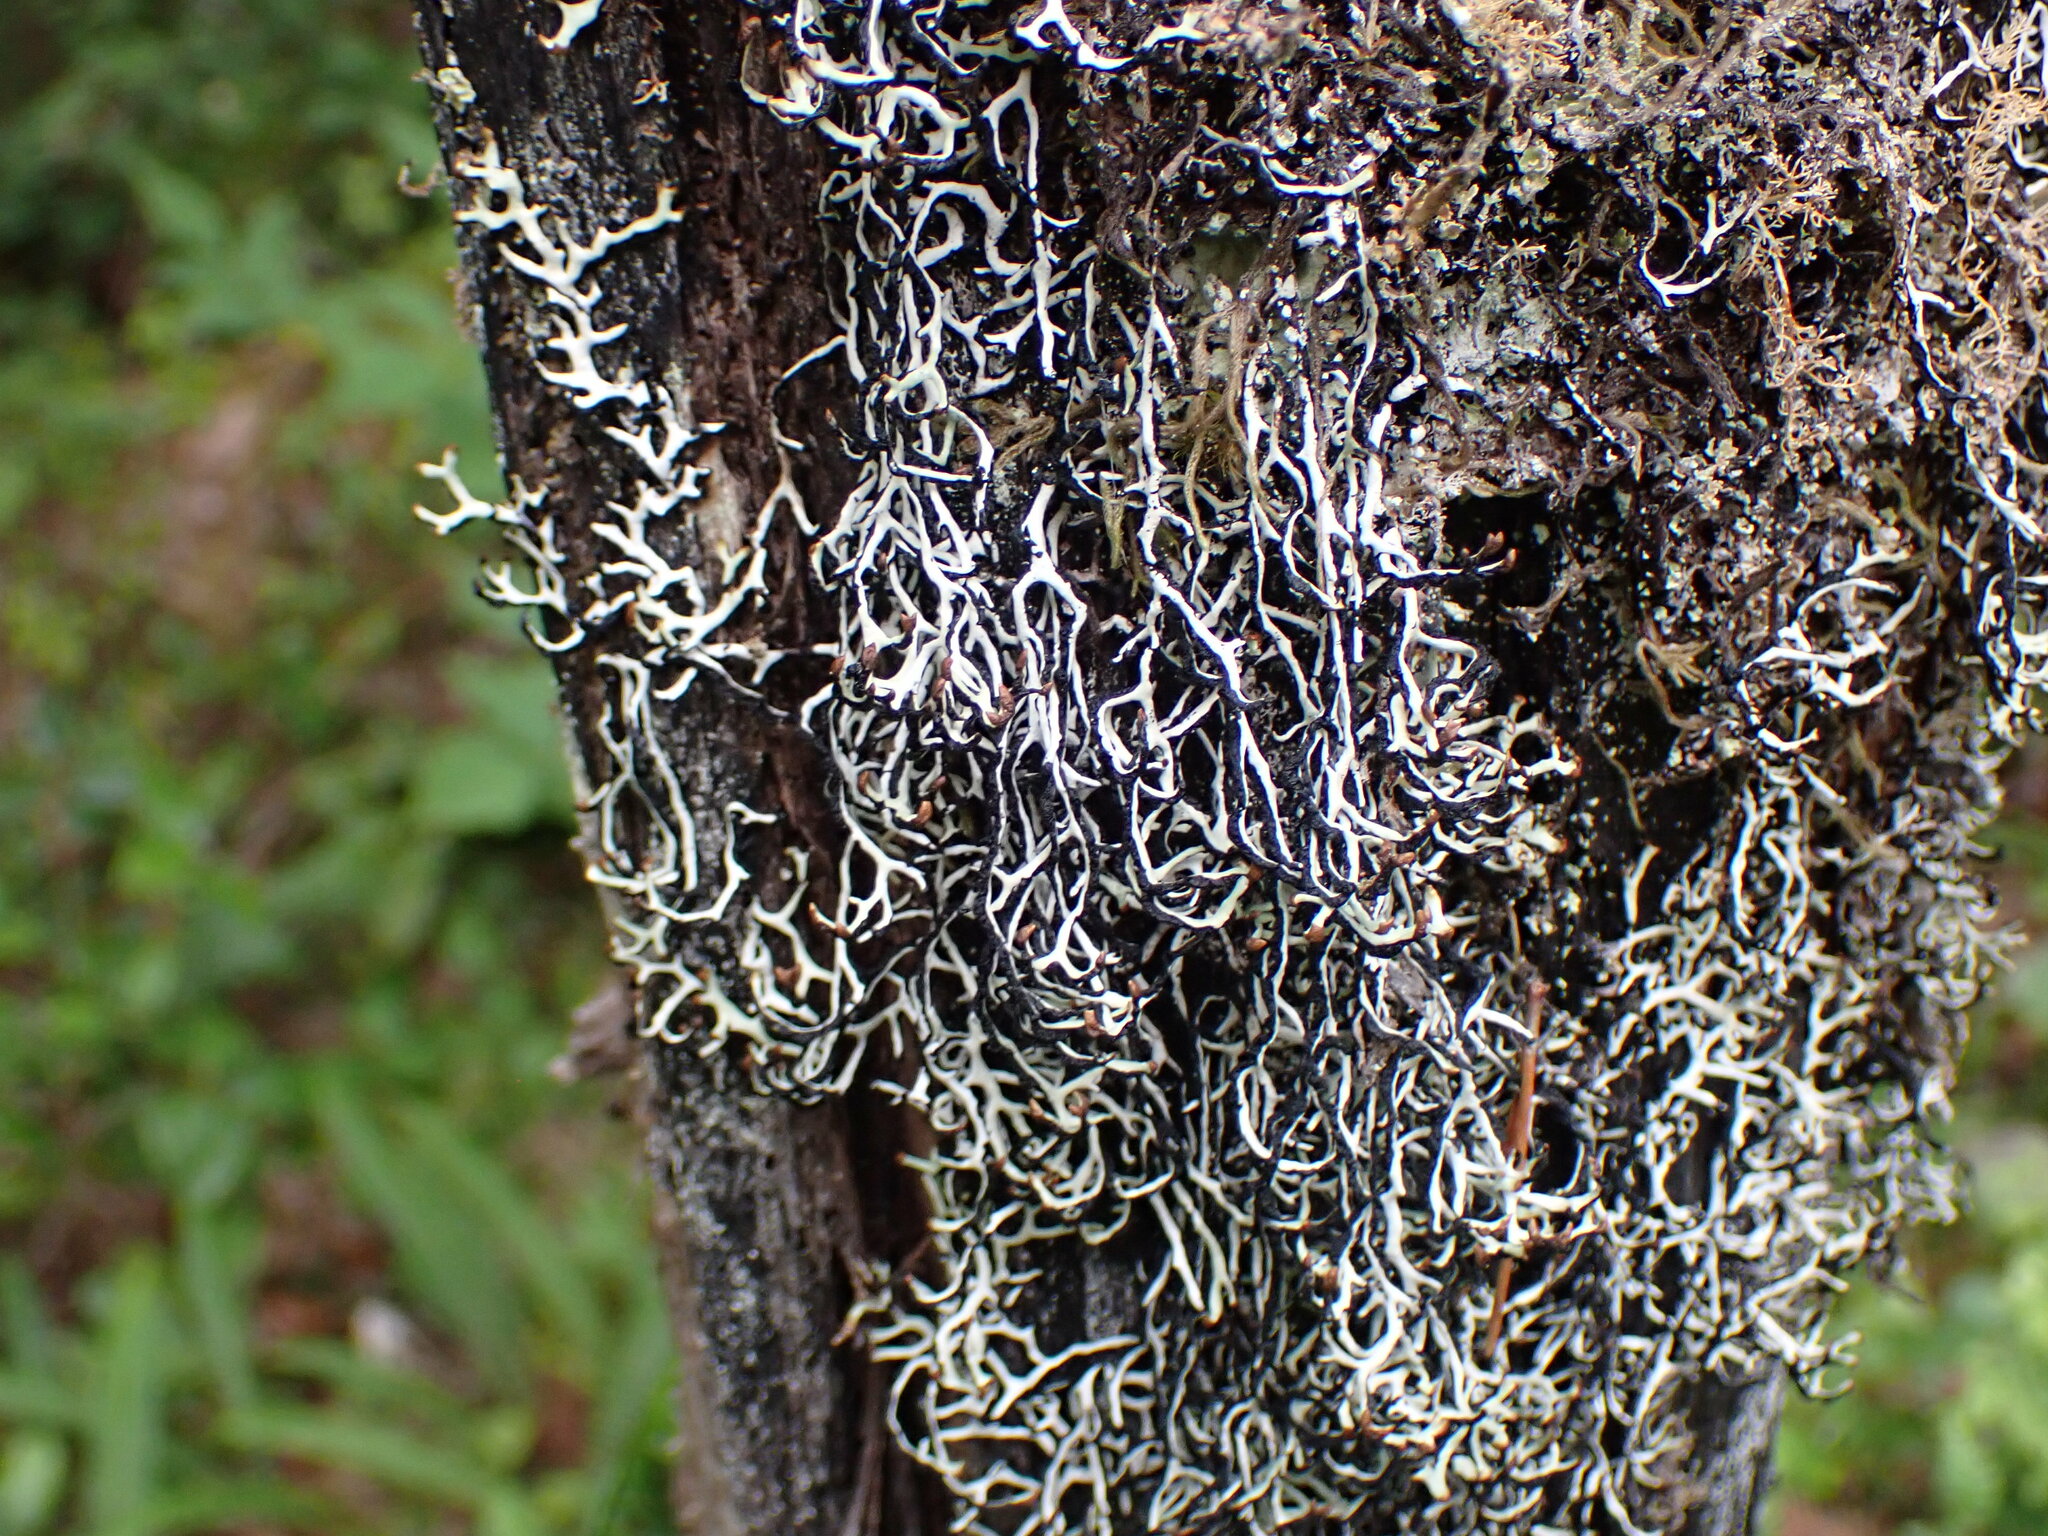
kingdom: Fungi
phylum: Ascomycota
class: Lecanoromycetes
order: Lecanorales
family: Parmeliaceae
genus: Hypogymnia
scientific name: Hypogymnia duplicata
